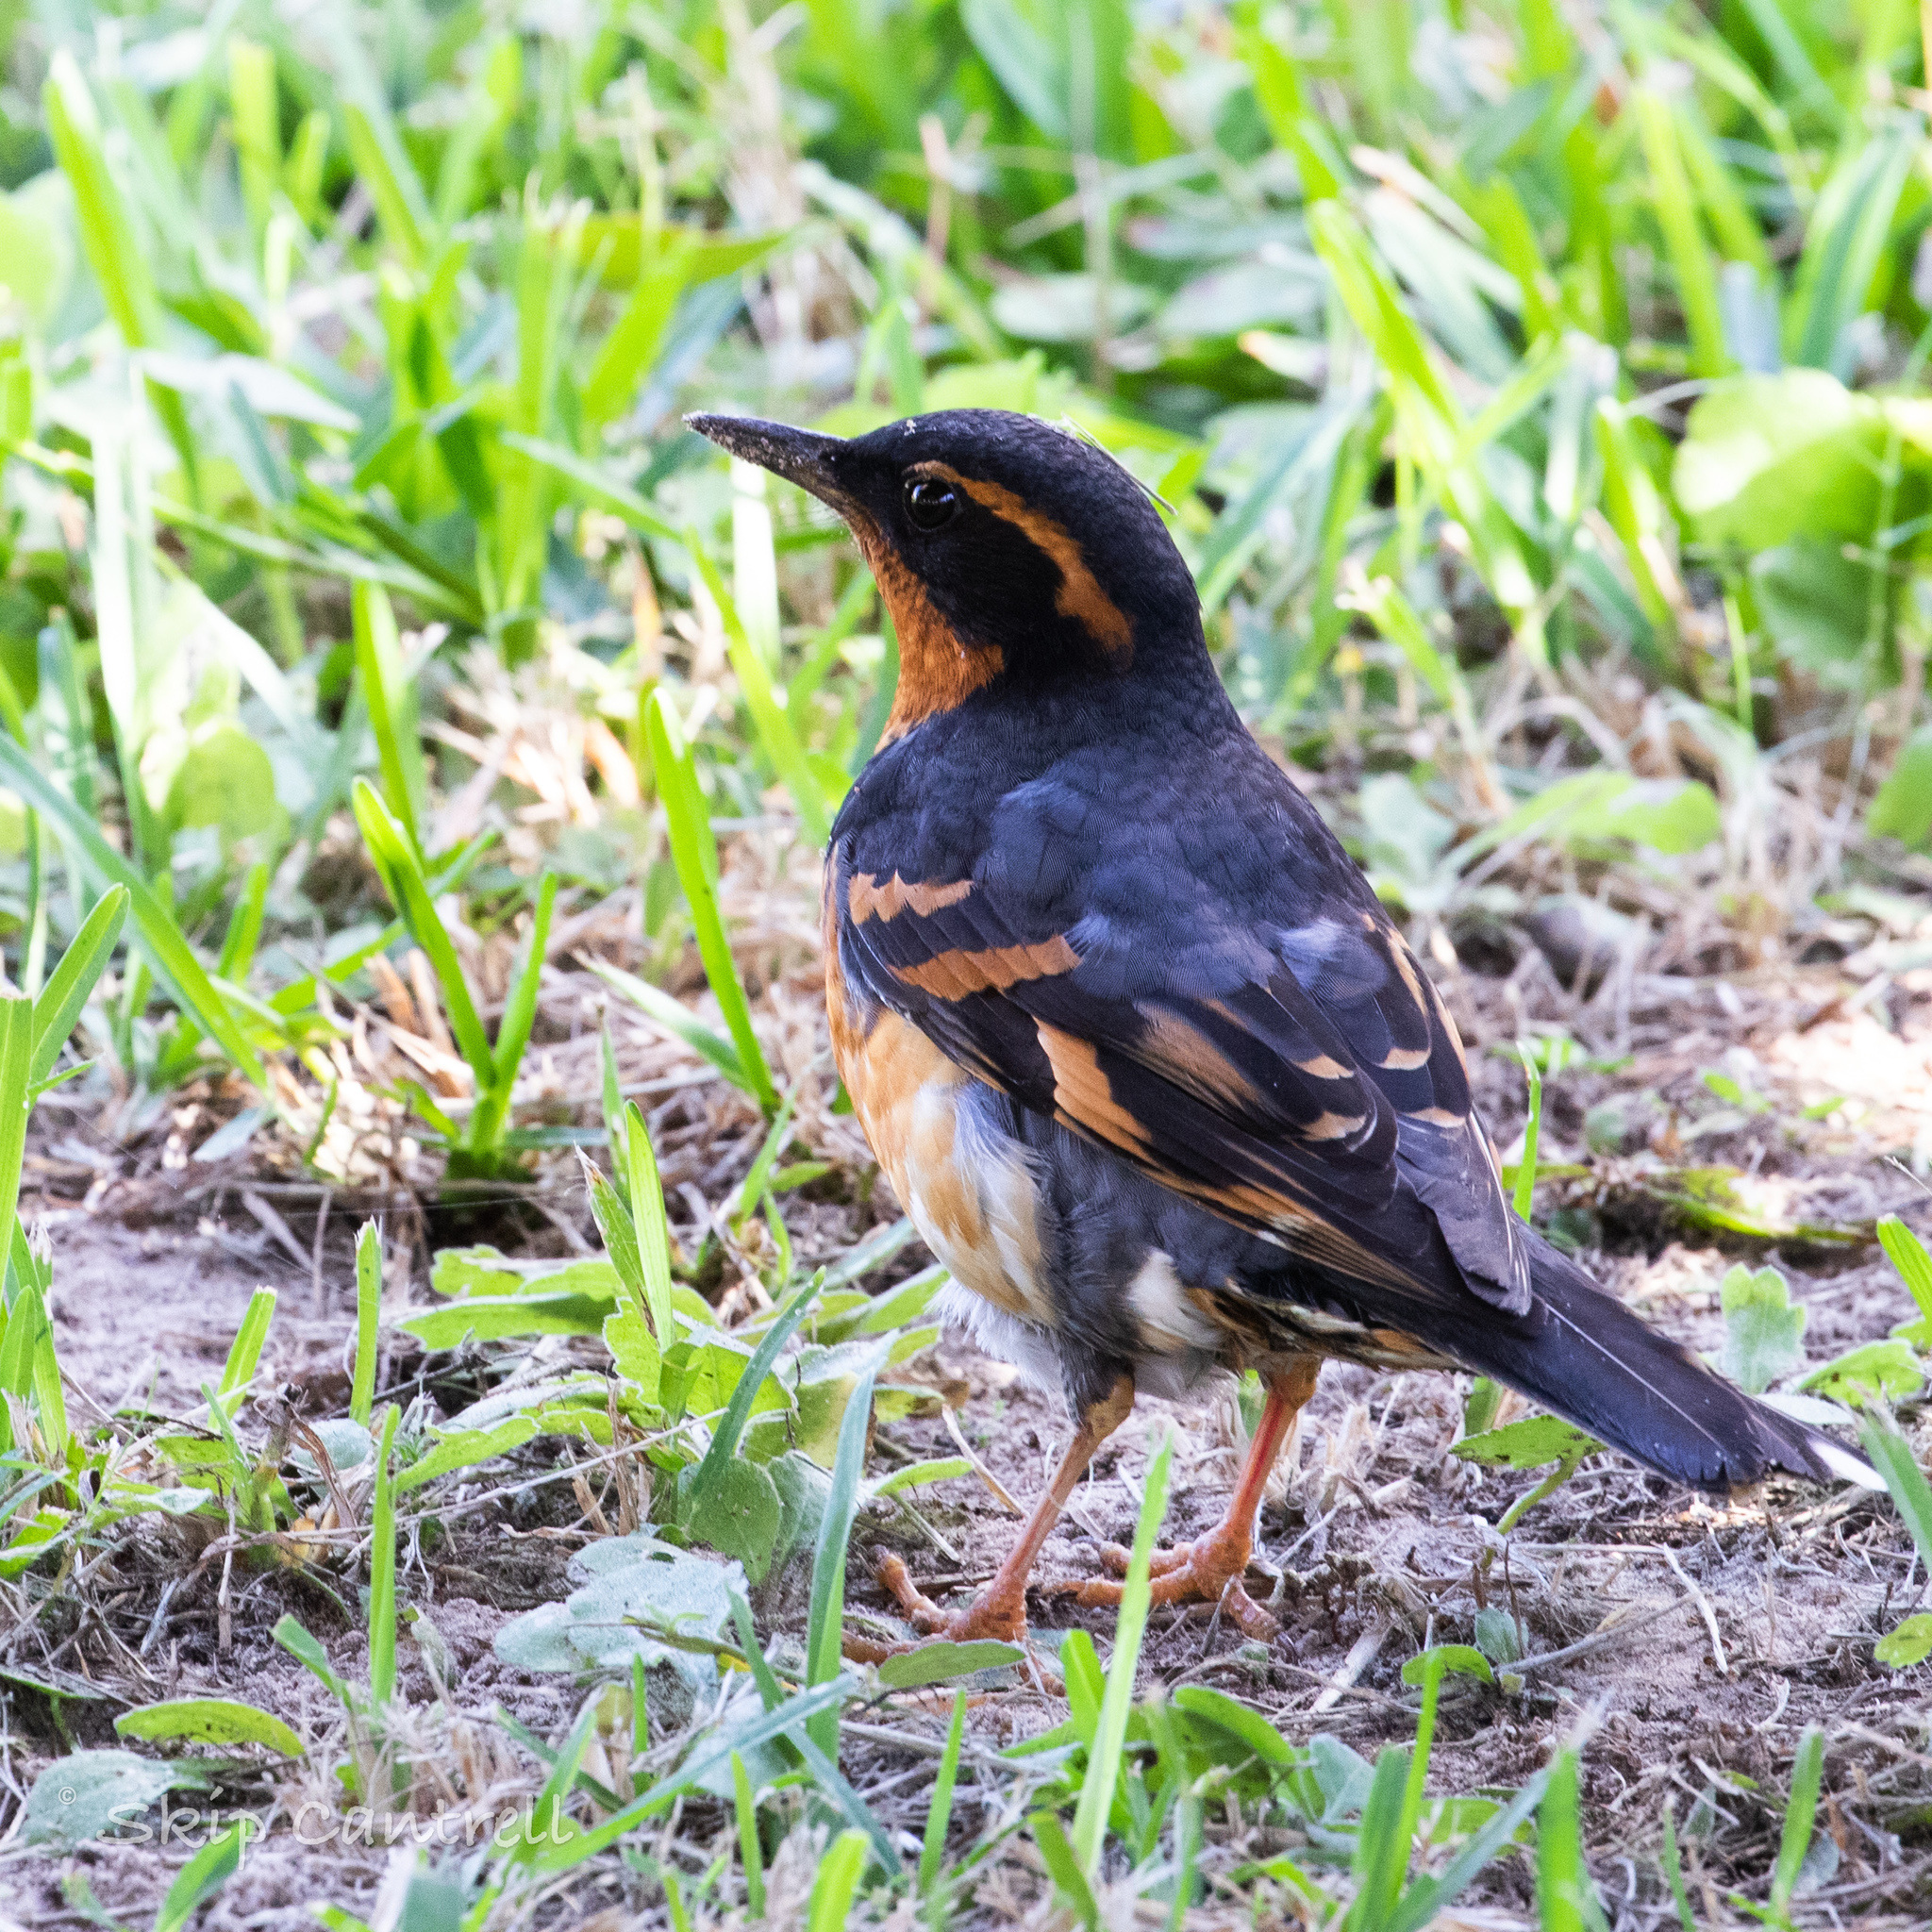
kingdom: Animalia
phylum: Chordata
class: Aves
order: Passeriformes
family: Turdidae
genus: Ixoreus
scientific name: Ixoreus naevius
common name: Varied thrush
